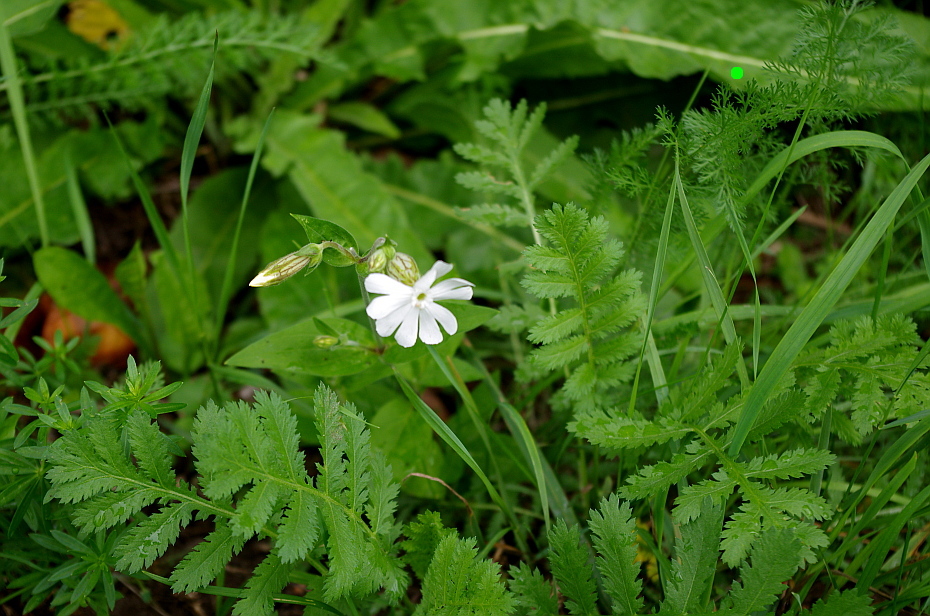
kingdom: Plantae
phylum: Tracheophyta
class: Magnoliopsida
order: Asterales
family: Asteraceae
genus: Achillea
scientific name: Achillea millefolium
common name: Yarrow
